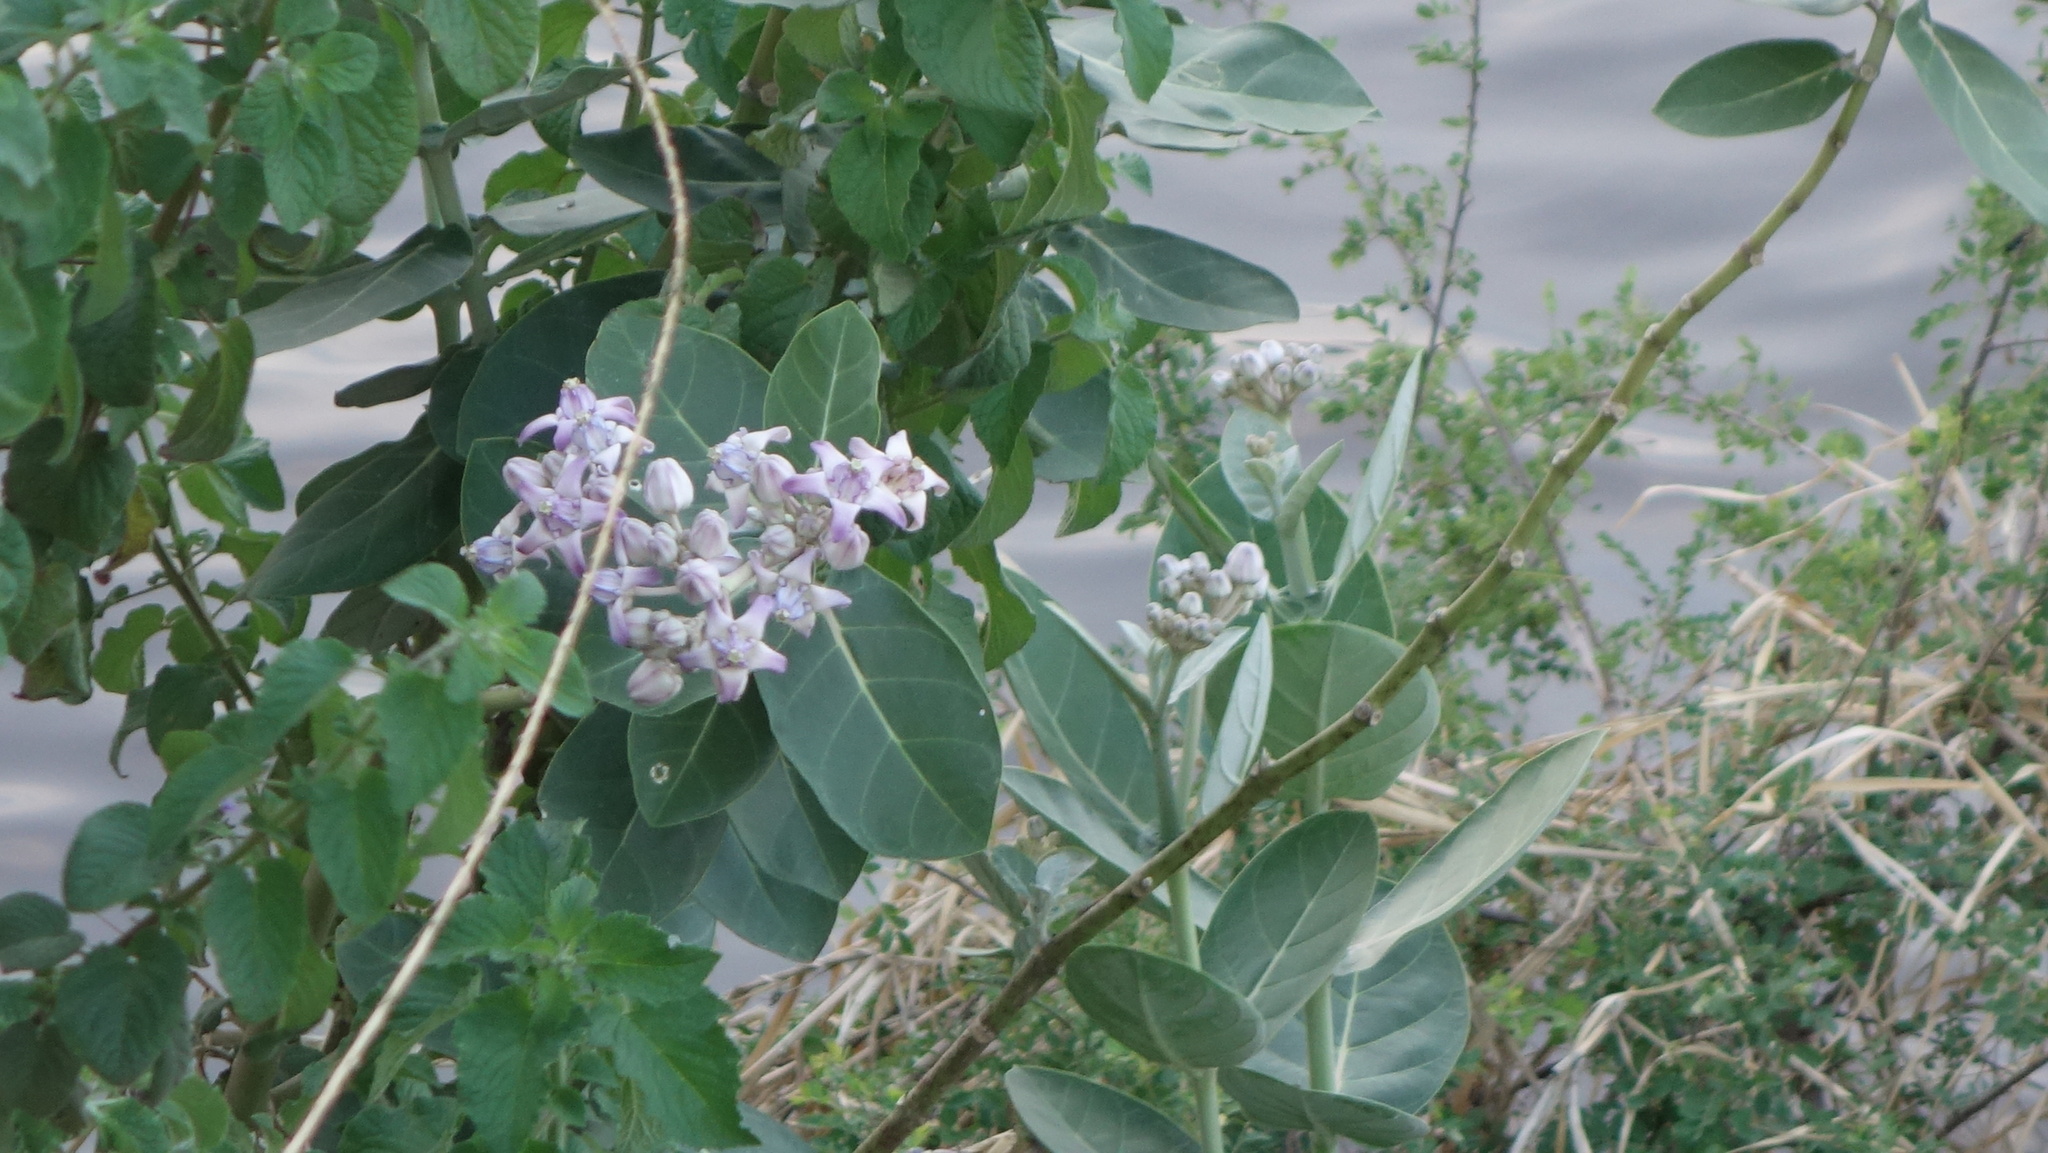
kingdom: Plantae
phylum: Tracheophyta
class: Magnoliopsida
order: Gentianales
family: Apocynaceae
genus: Calotropis
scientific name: Calotropis gigantea
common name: Crown flower
